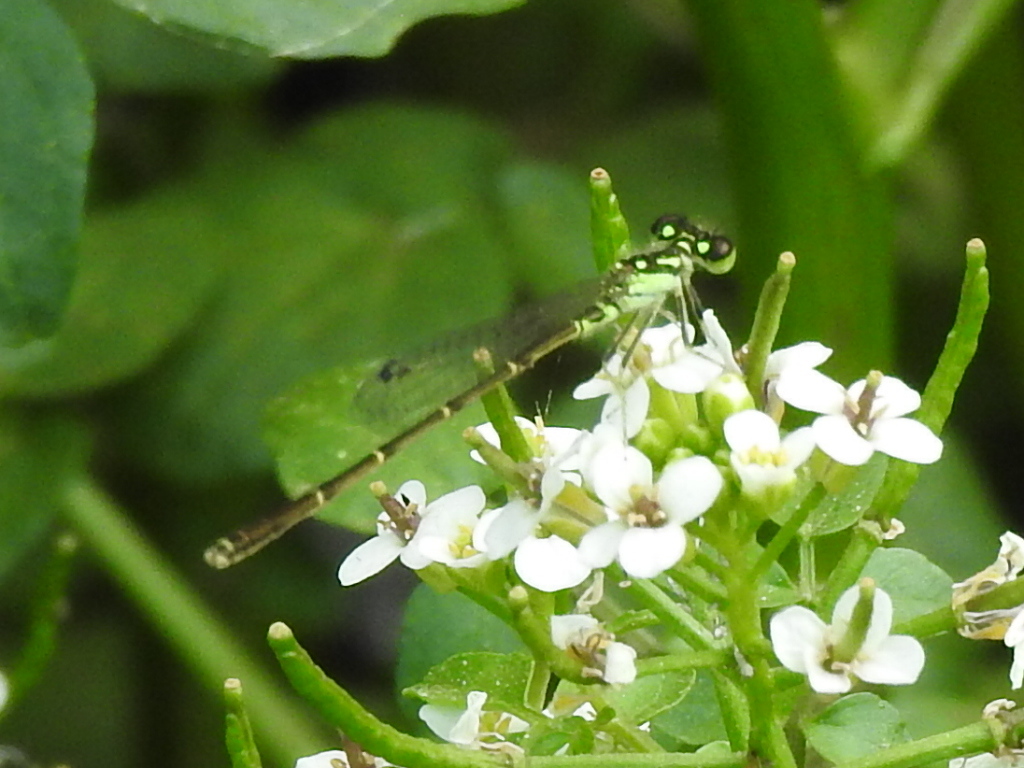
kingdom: Animalia
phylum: Arthropoda
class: Insecta
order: Odonata
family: Coenagrionidae
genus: Ischnura
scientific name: Ischnura posita
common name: Fragile forktail
